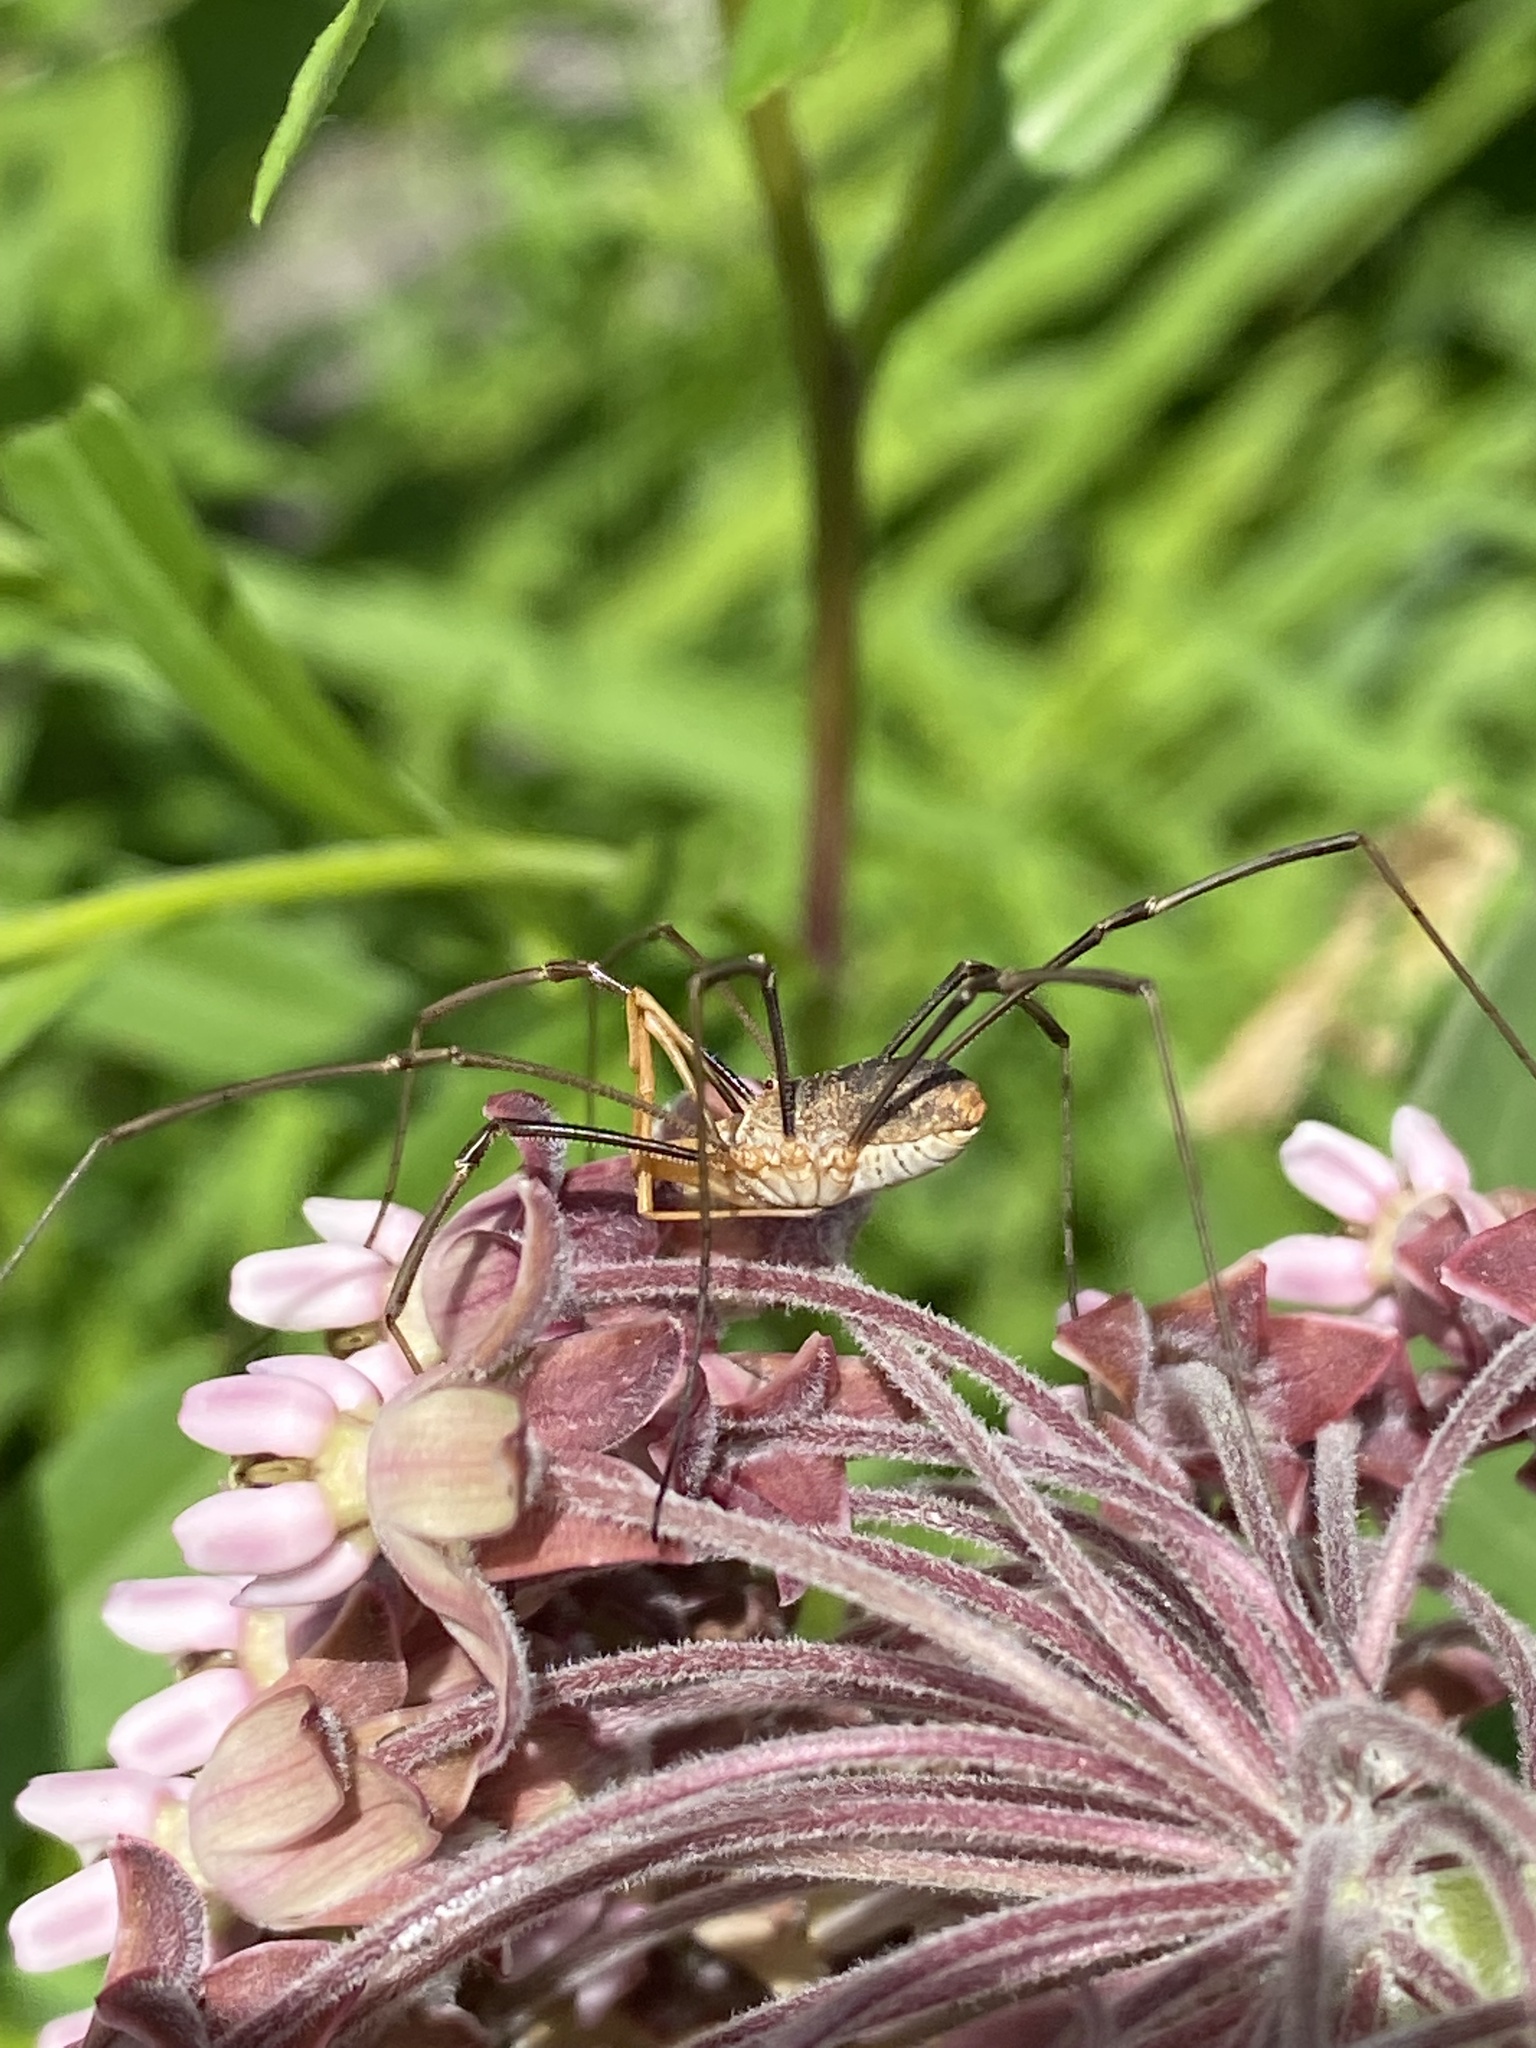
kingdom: Animalia
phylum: Arthropoda
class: Arachnida
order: Opiliones
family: Phalangiidae
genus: Phalangium
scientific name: Phalangium opilio
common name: Daddy longleg
